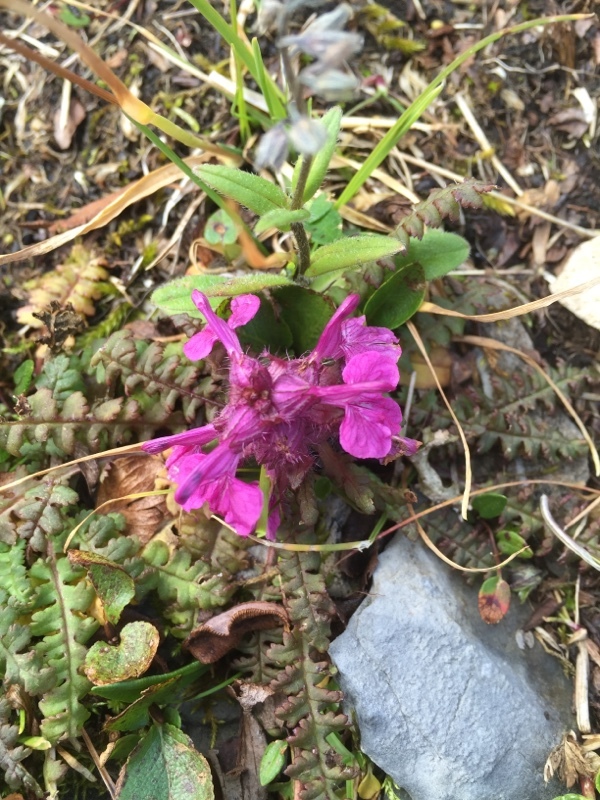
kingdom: Plantae
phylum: Tracheophyta
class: Magnoliopsida
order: Lamiales
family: Orobanchaceae
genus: Pedicularis
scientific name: Pedicularis verticillata
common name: Whorled lousewort
